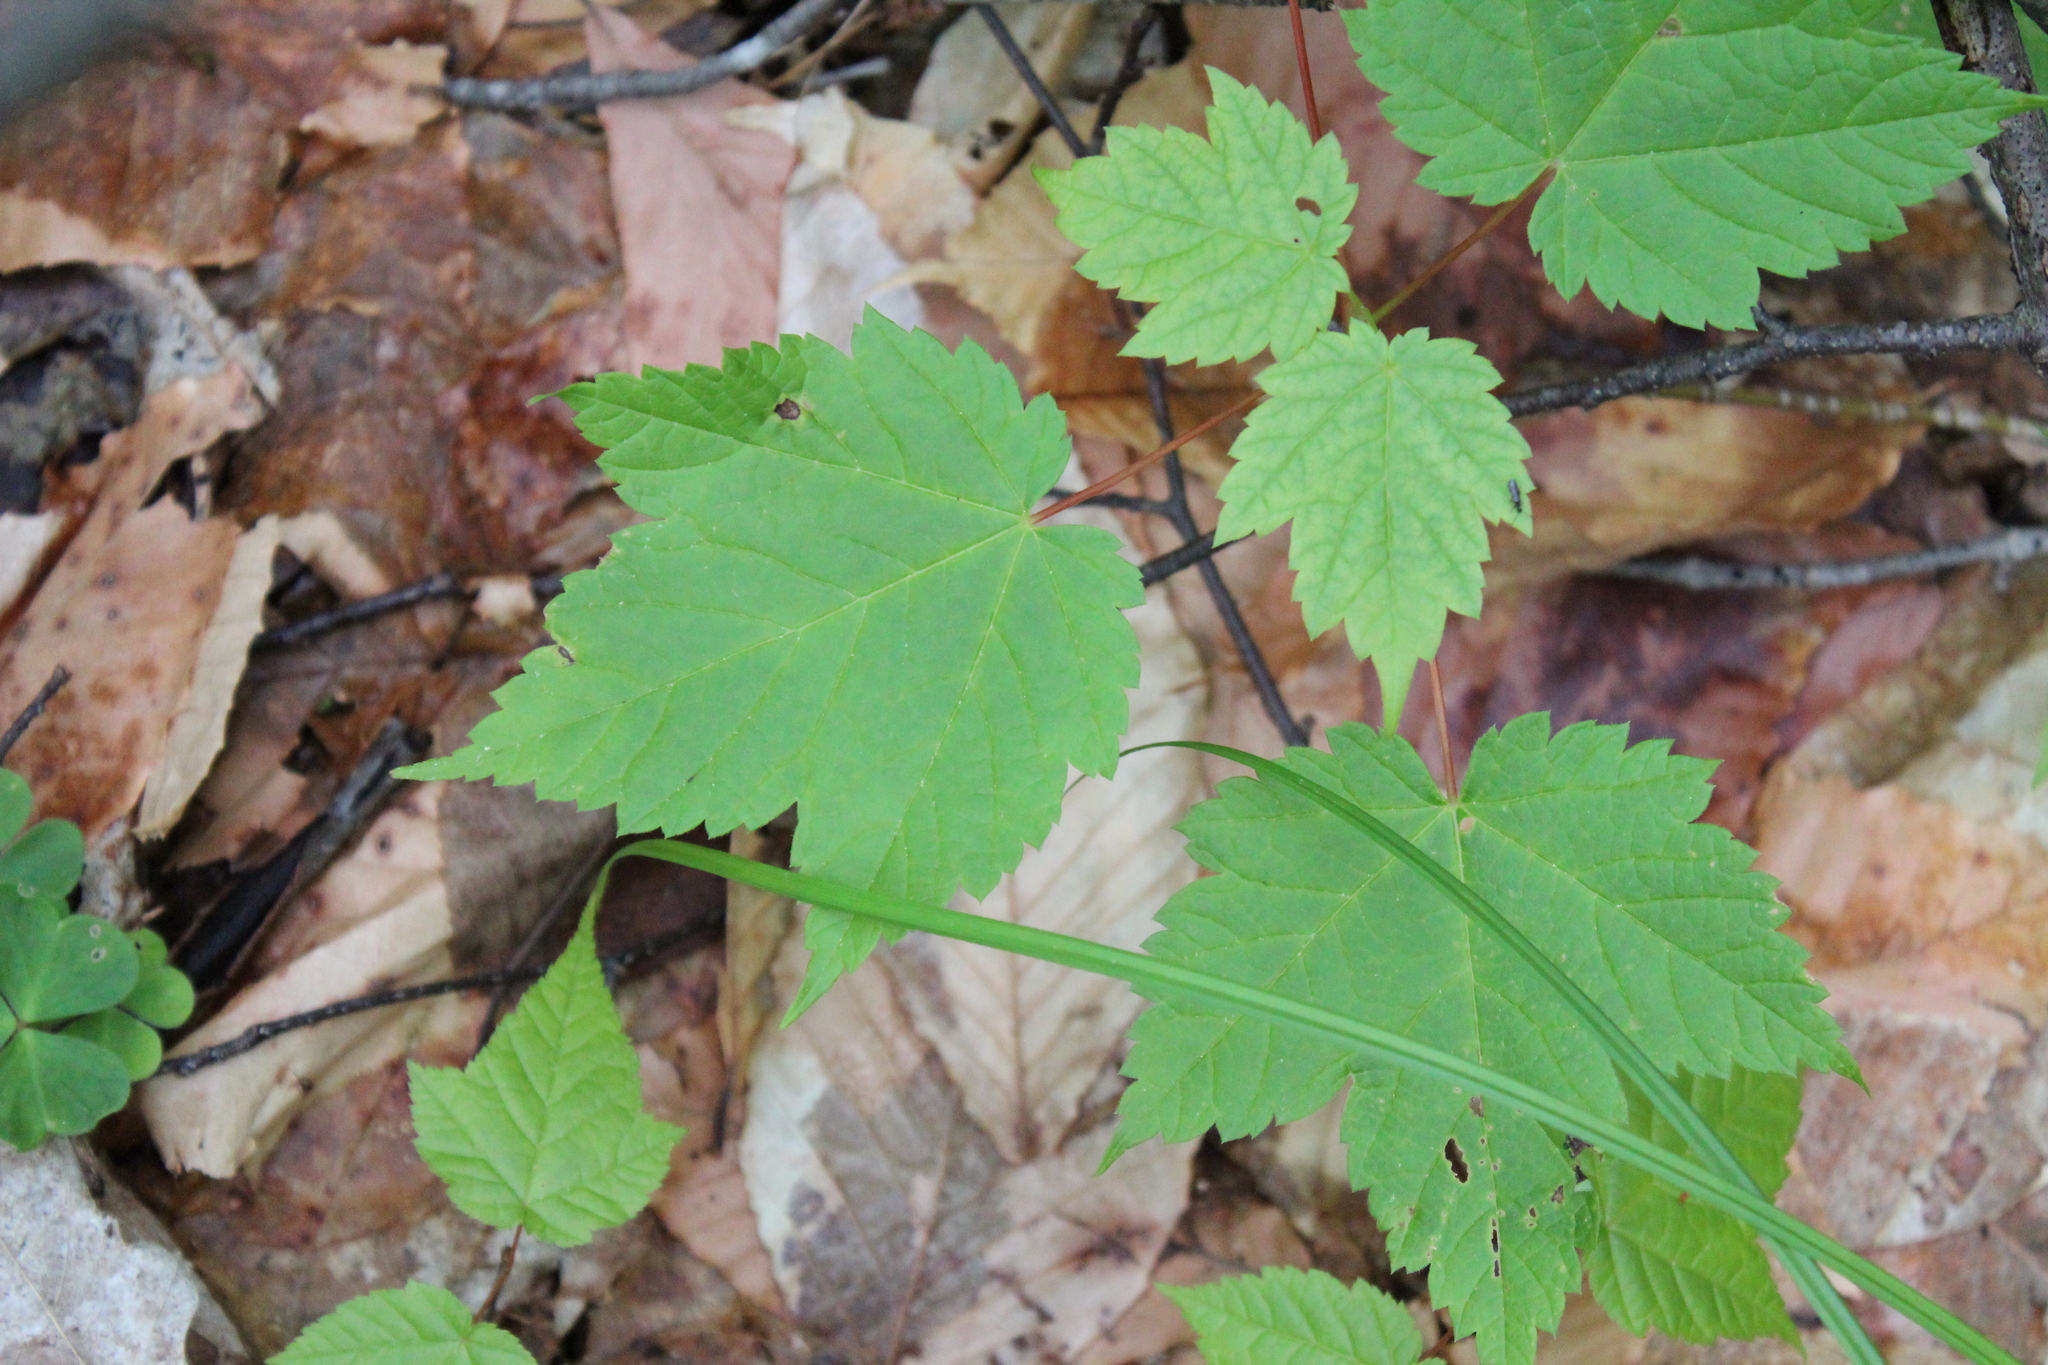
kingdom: Plantae
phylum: Tracheophyta
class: Magnoliopsida
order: Sapindales
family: Sapindaceae
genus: Acer
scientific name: Acer spicatum
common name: Mountain maple
